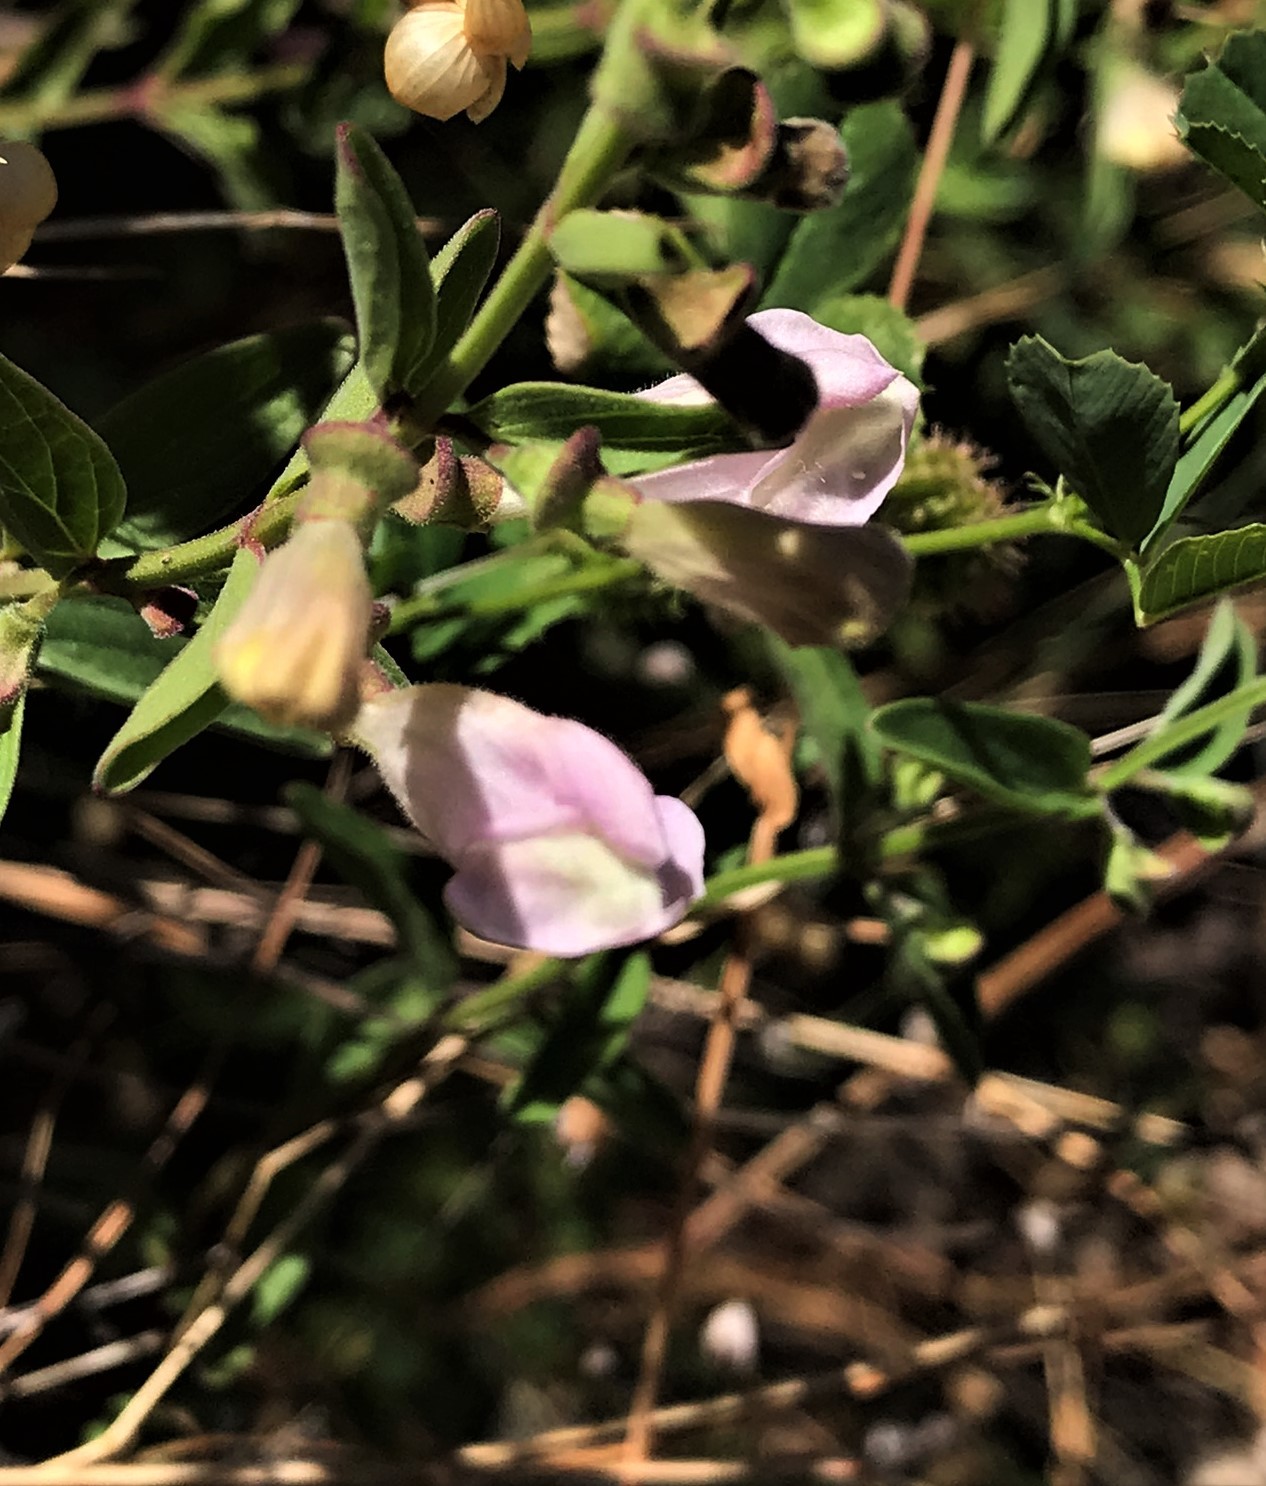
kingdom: Plantae
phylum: Tracheophyta
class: Magnoliopsida
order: Lamiales
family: Lamiaceae
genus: Scutellaria
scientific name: Scutellaria californica
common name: California scullcap
